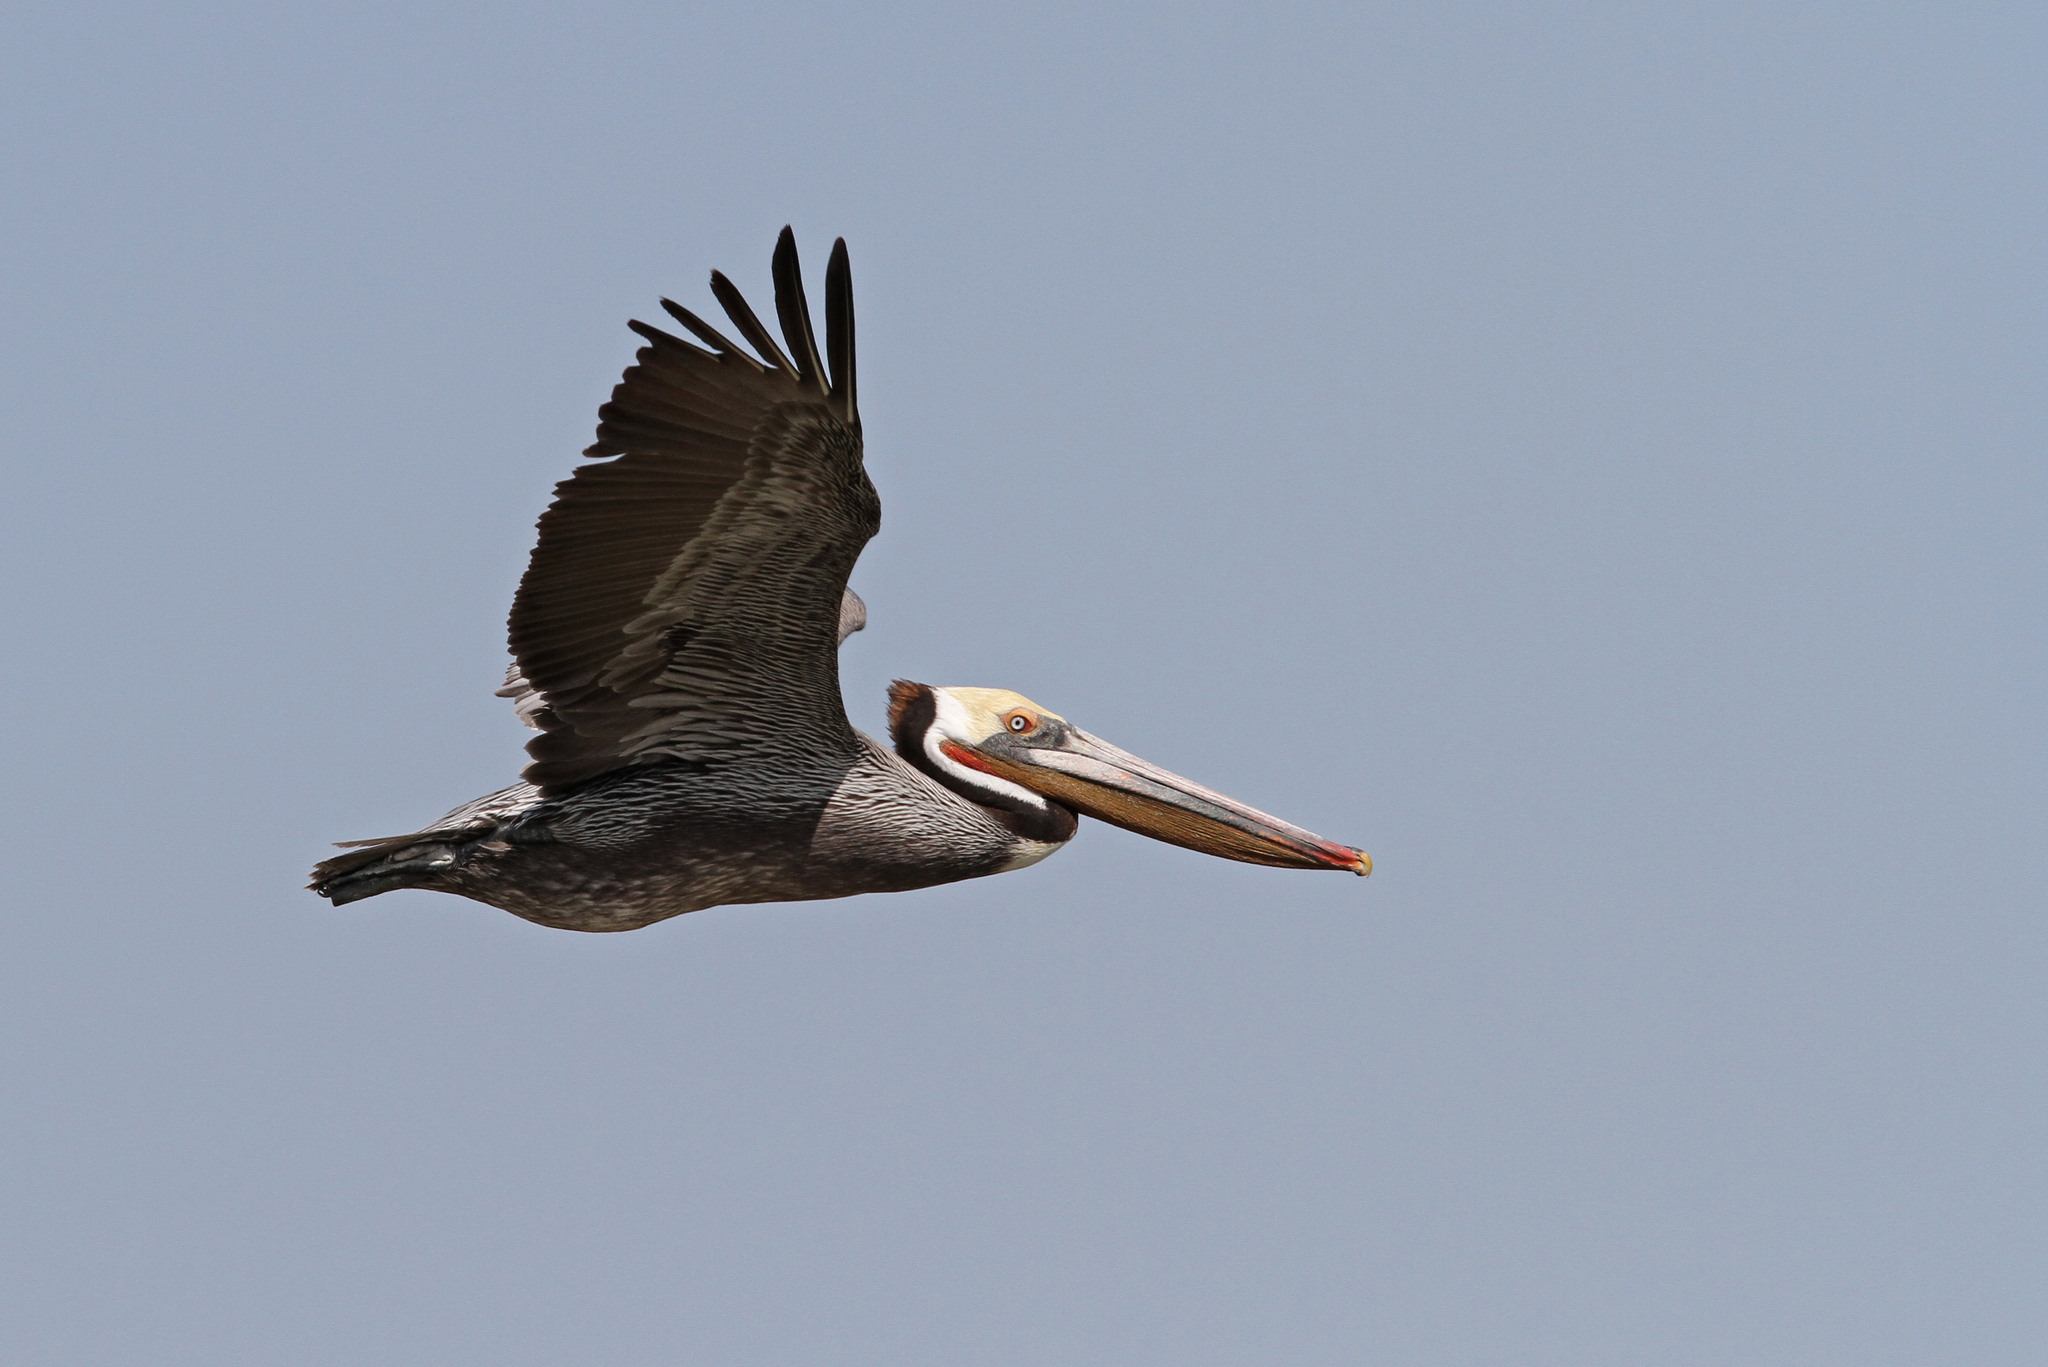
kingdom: Animalia
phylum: Chordata
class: Aves
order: Pelecaniformes
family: Pelecanidae
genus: Pelecanus
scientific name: Pelecanus occidentalis
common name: Brown pelican
